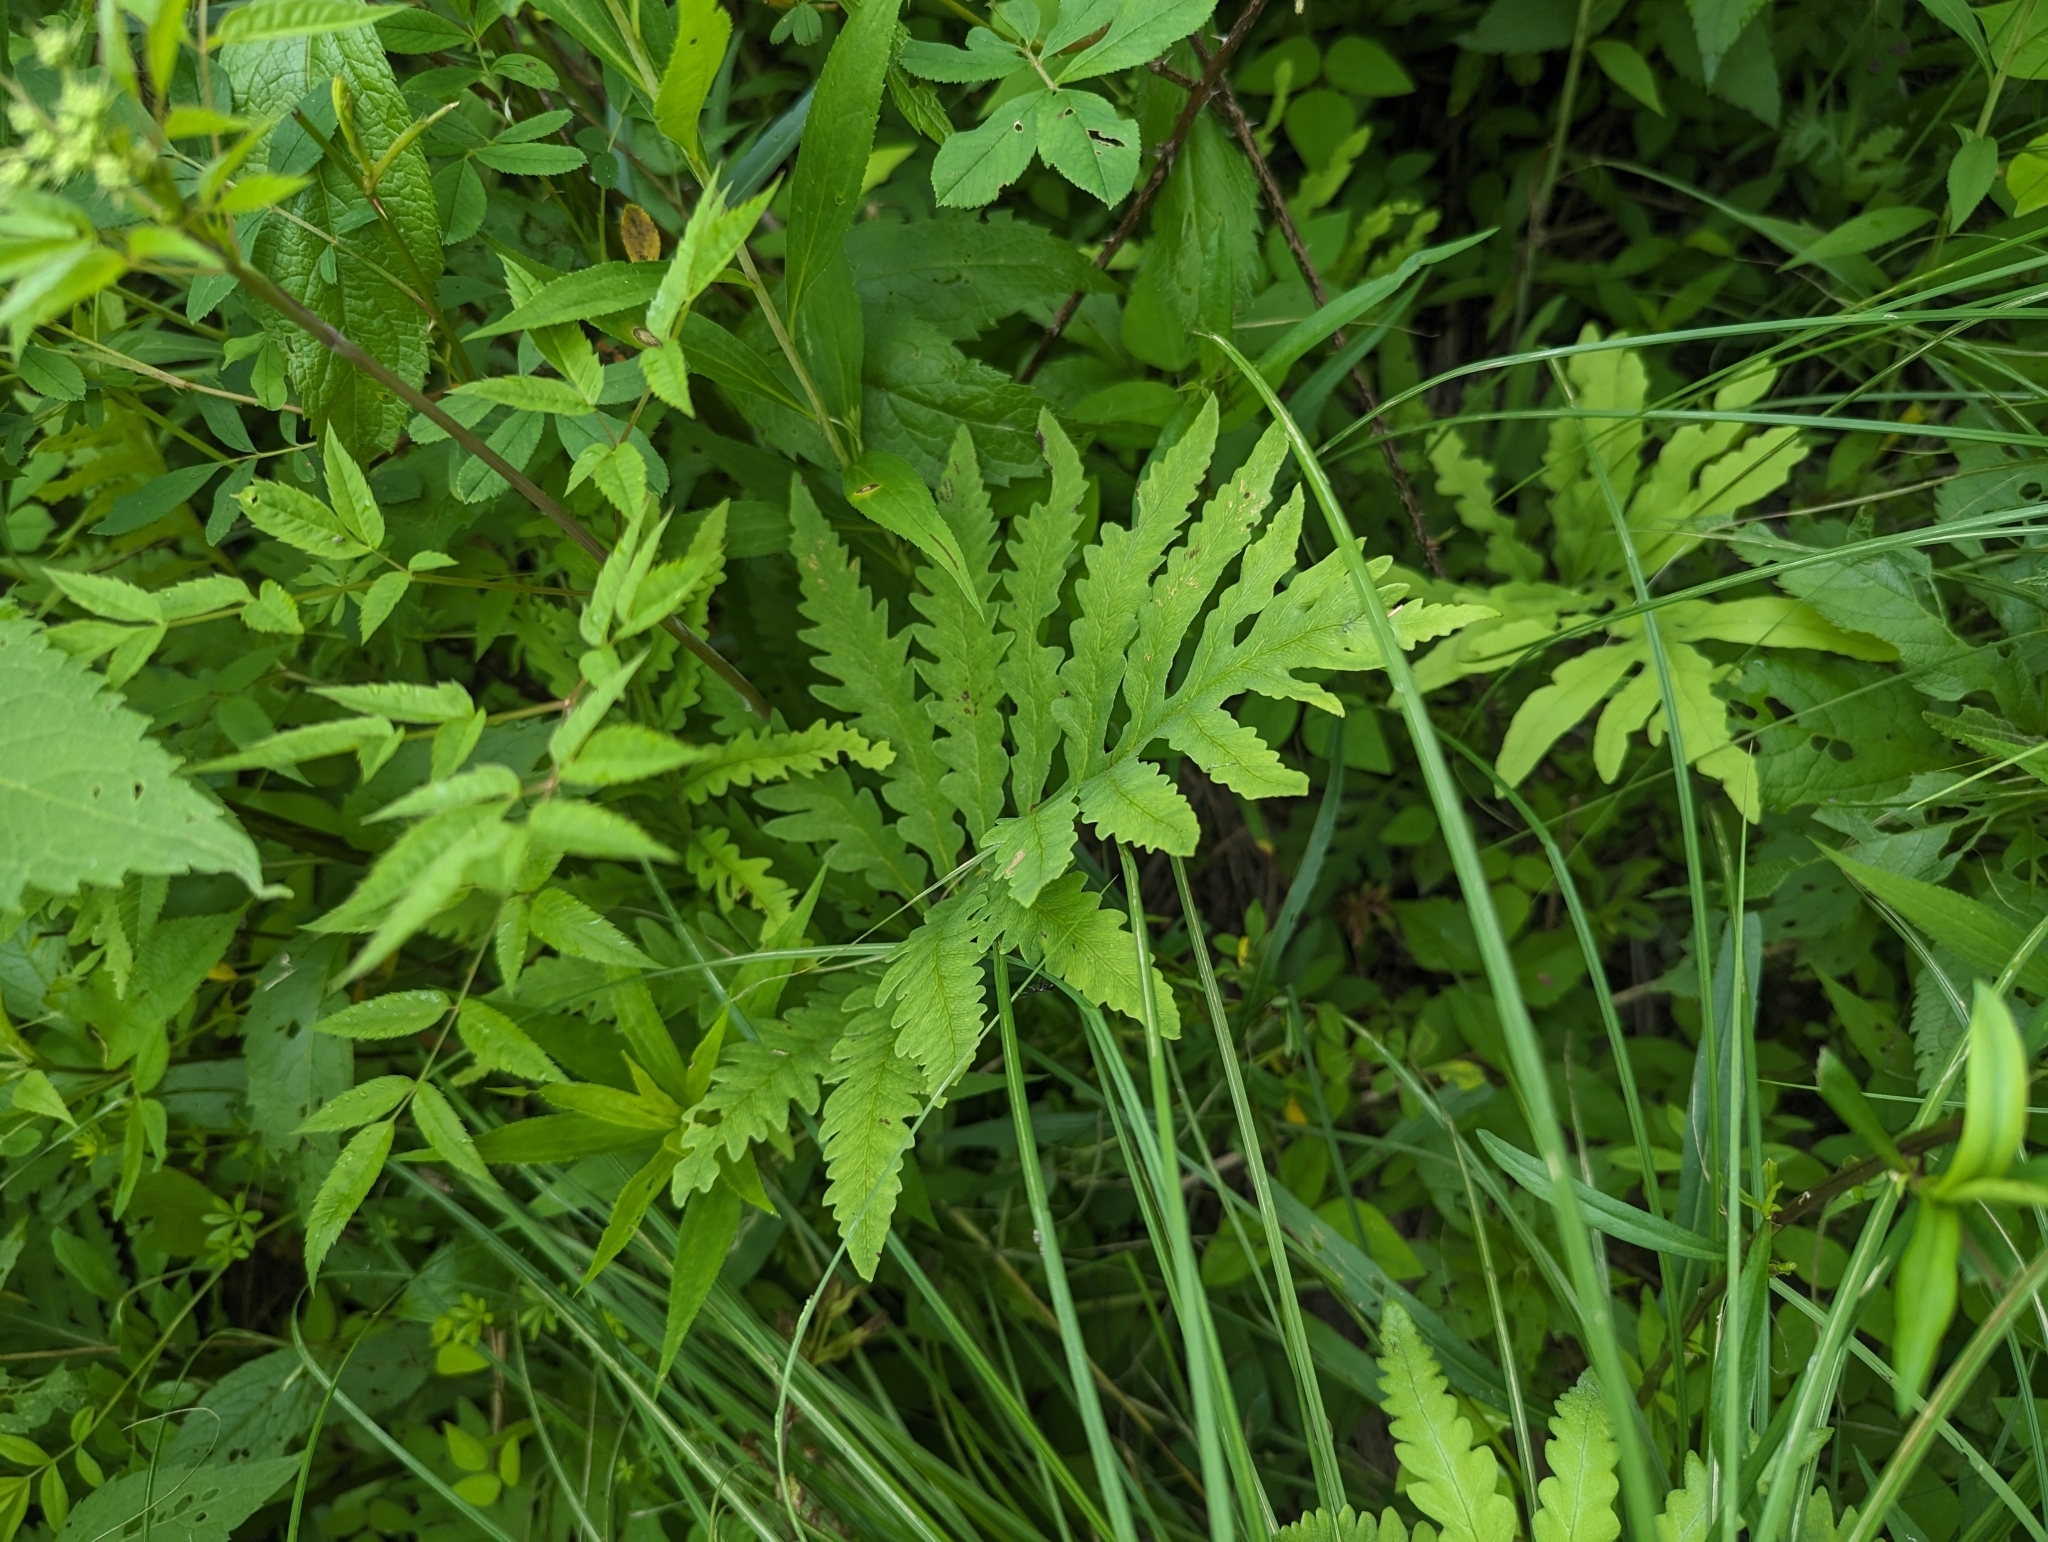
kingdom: Plantae
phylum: Tracheophyta
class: Polypodiopsida
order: Polypodiales
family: Onocleaceae
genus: Onoclea
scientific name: Onoclea sensibilis
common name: Sensitive fern
